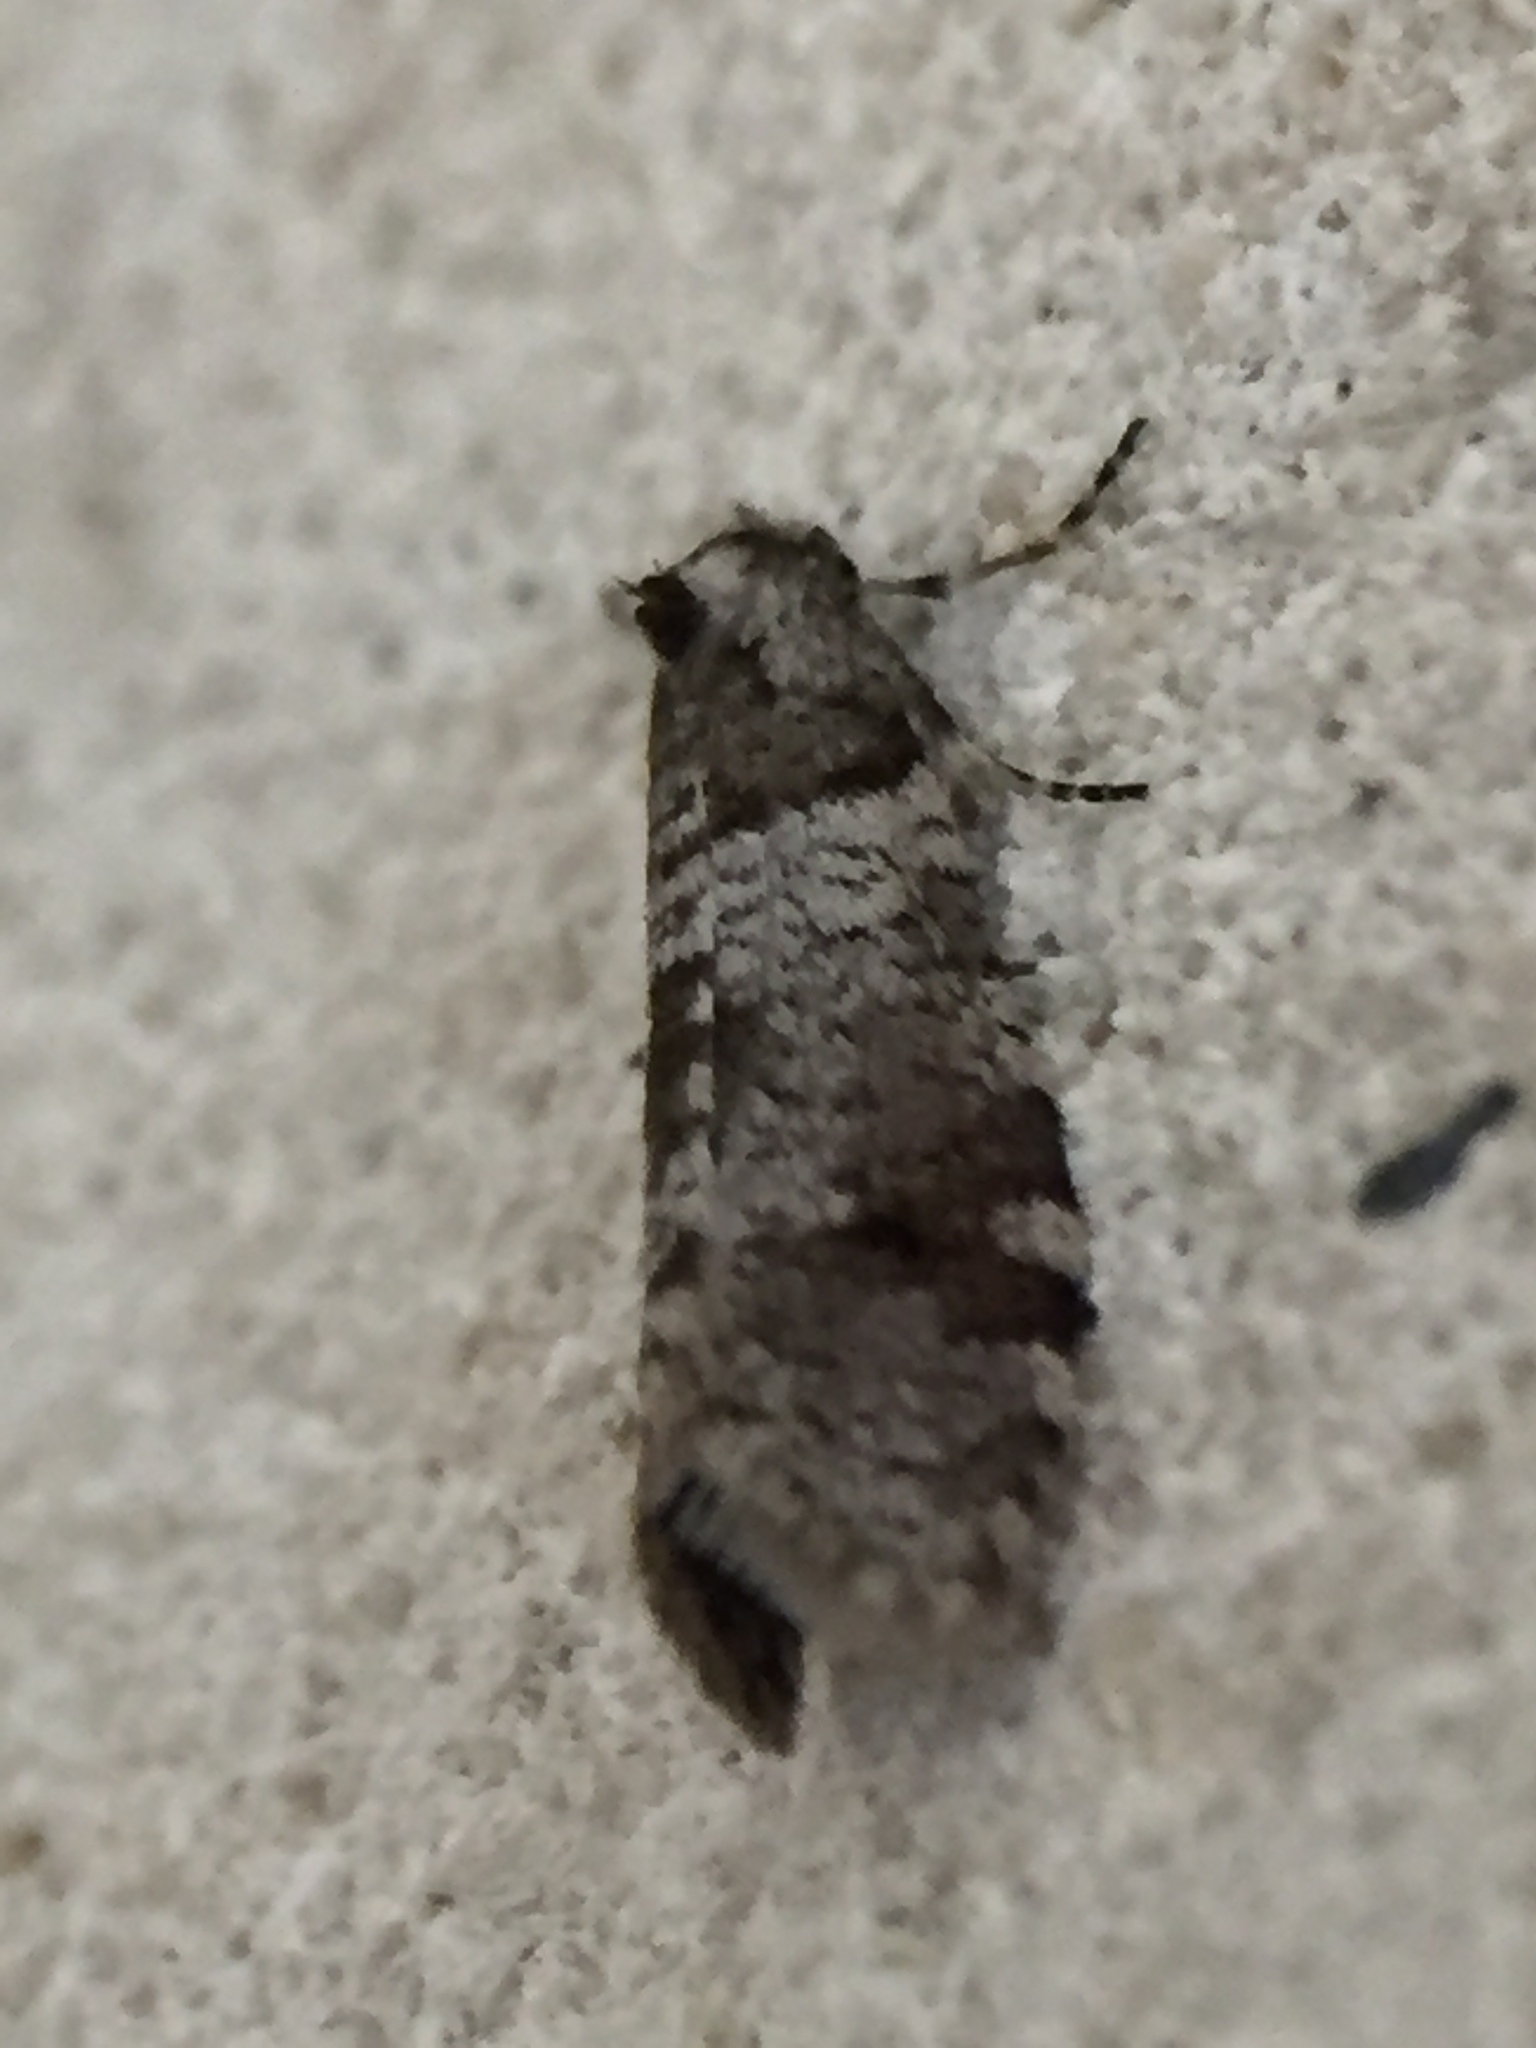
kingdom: Animalia
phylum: Arthropoda
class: Insecta
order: Lepidoptera
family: Psychidae
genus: Lepidoscia
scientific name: Lepidoscia heliochares
